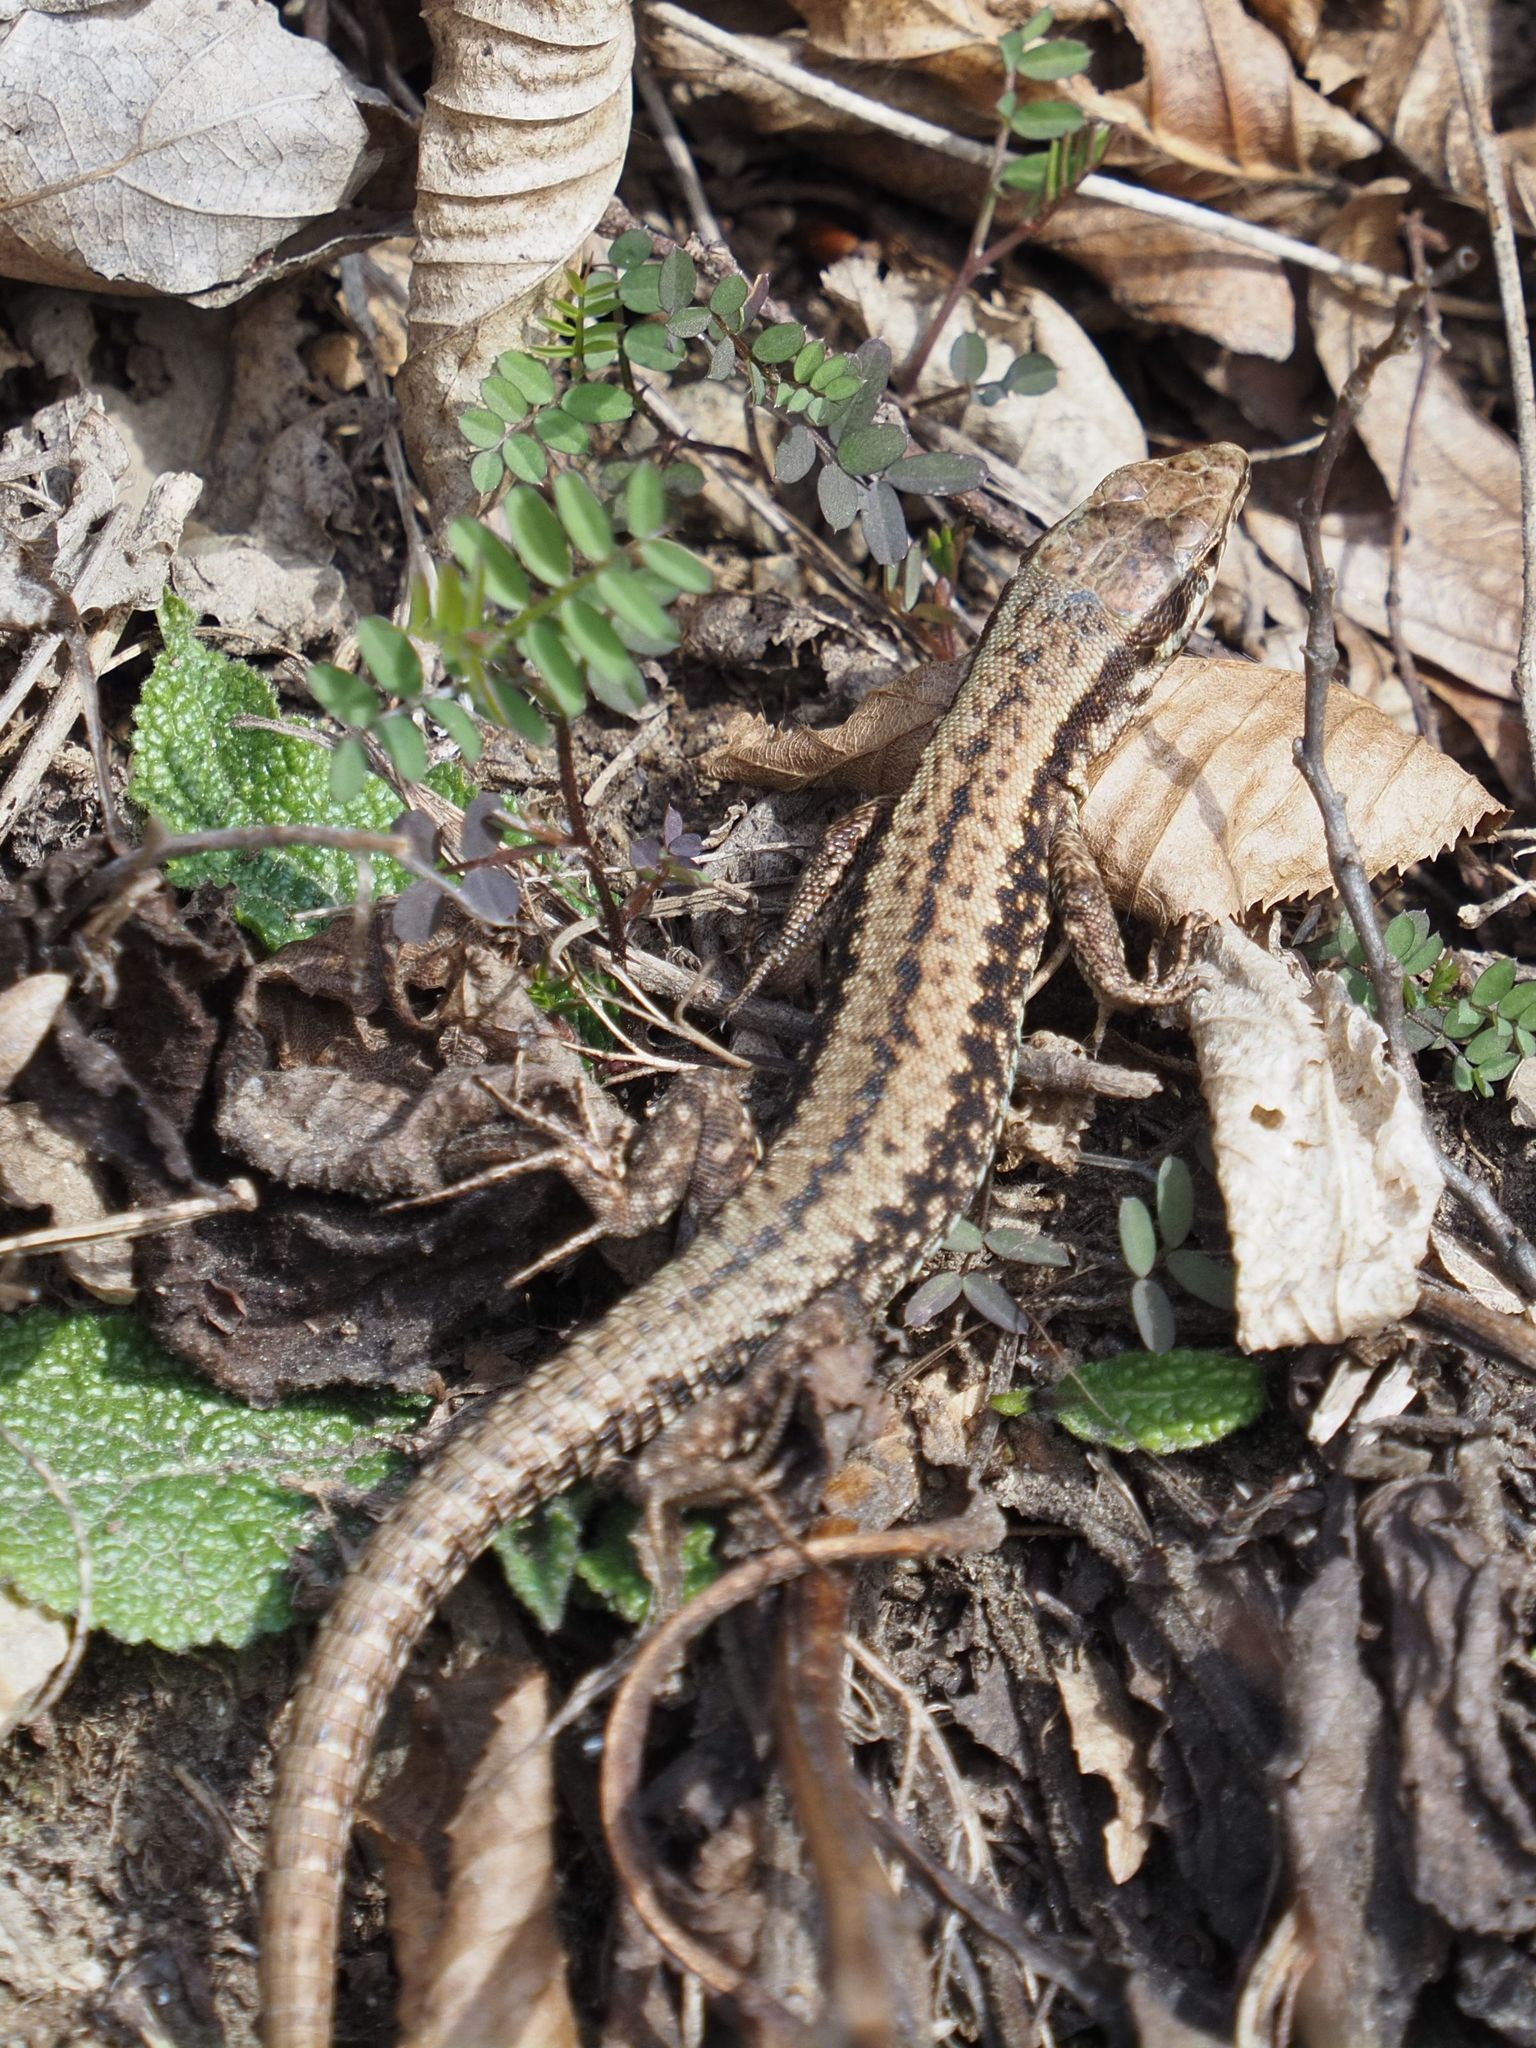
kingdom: Animalia
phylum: Chordata
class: Squamata
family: Lacertidae
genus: Podarcis
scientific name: Podarcis muralis
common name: Common wall lizard
